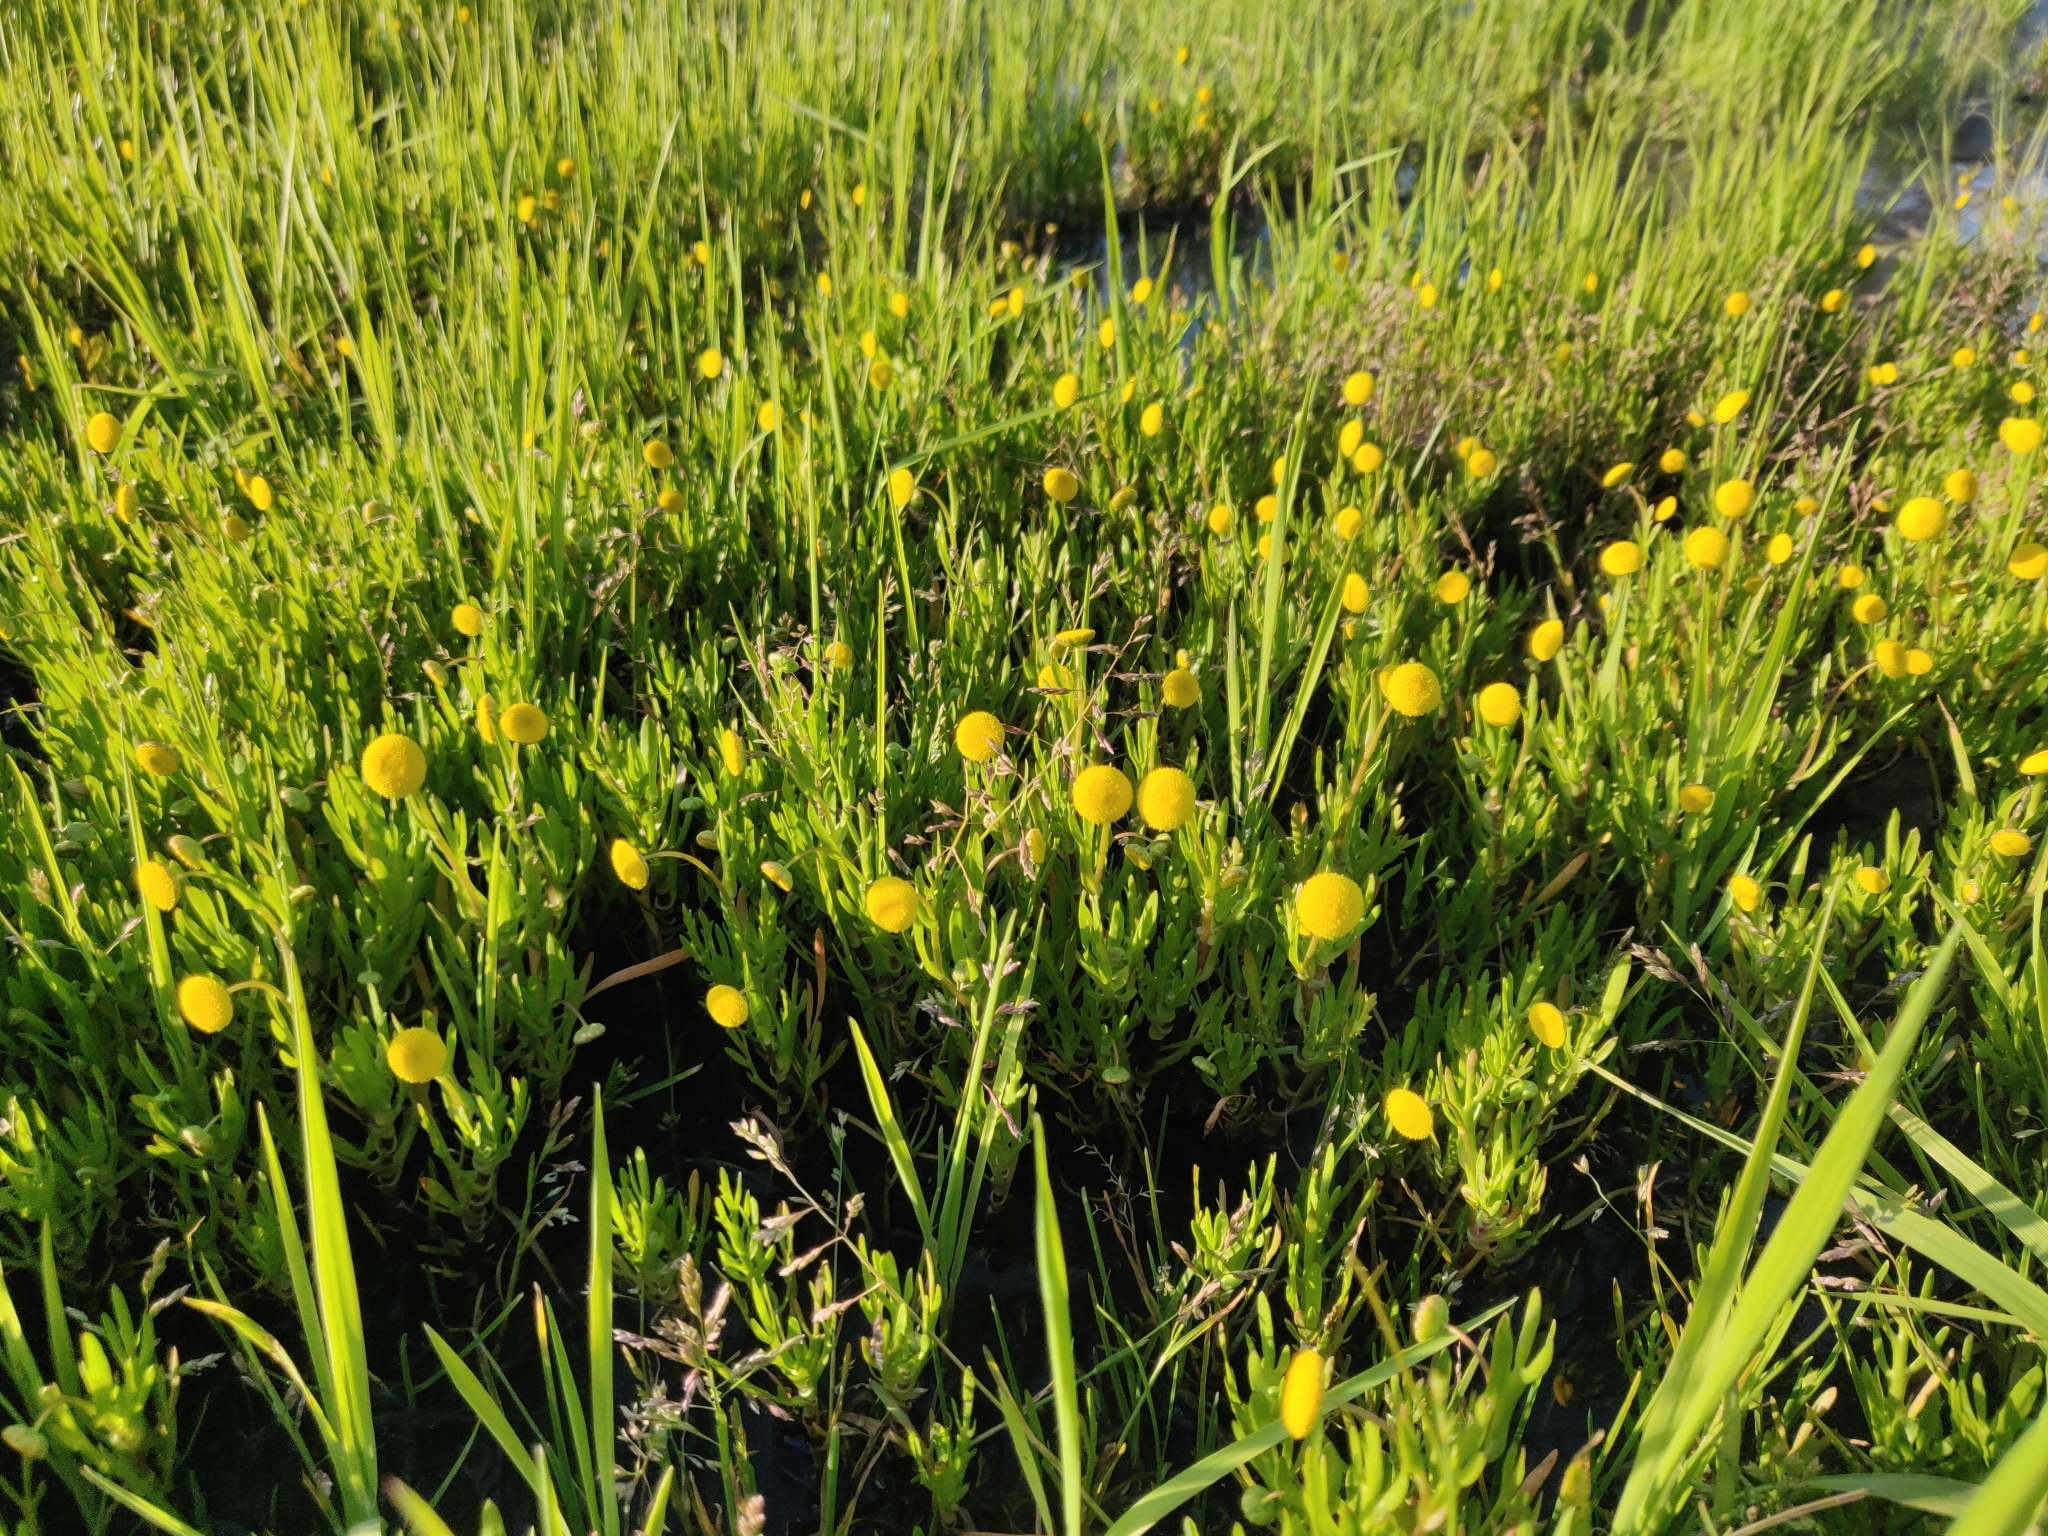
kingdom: Plantae
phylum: Tracheophyta
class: Magnoliopsida
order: Asterales
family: Asteraceae
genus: Cotula
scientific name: Cotula coronopifolia
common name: Buttonweed
